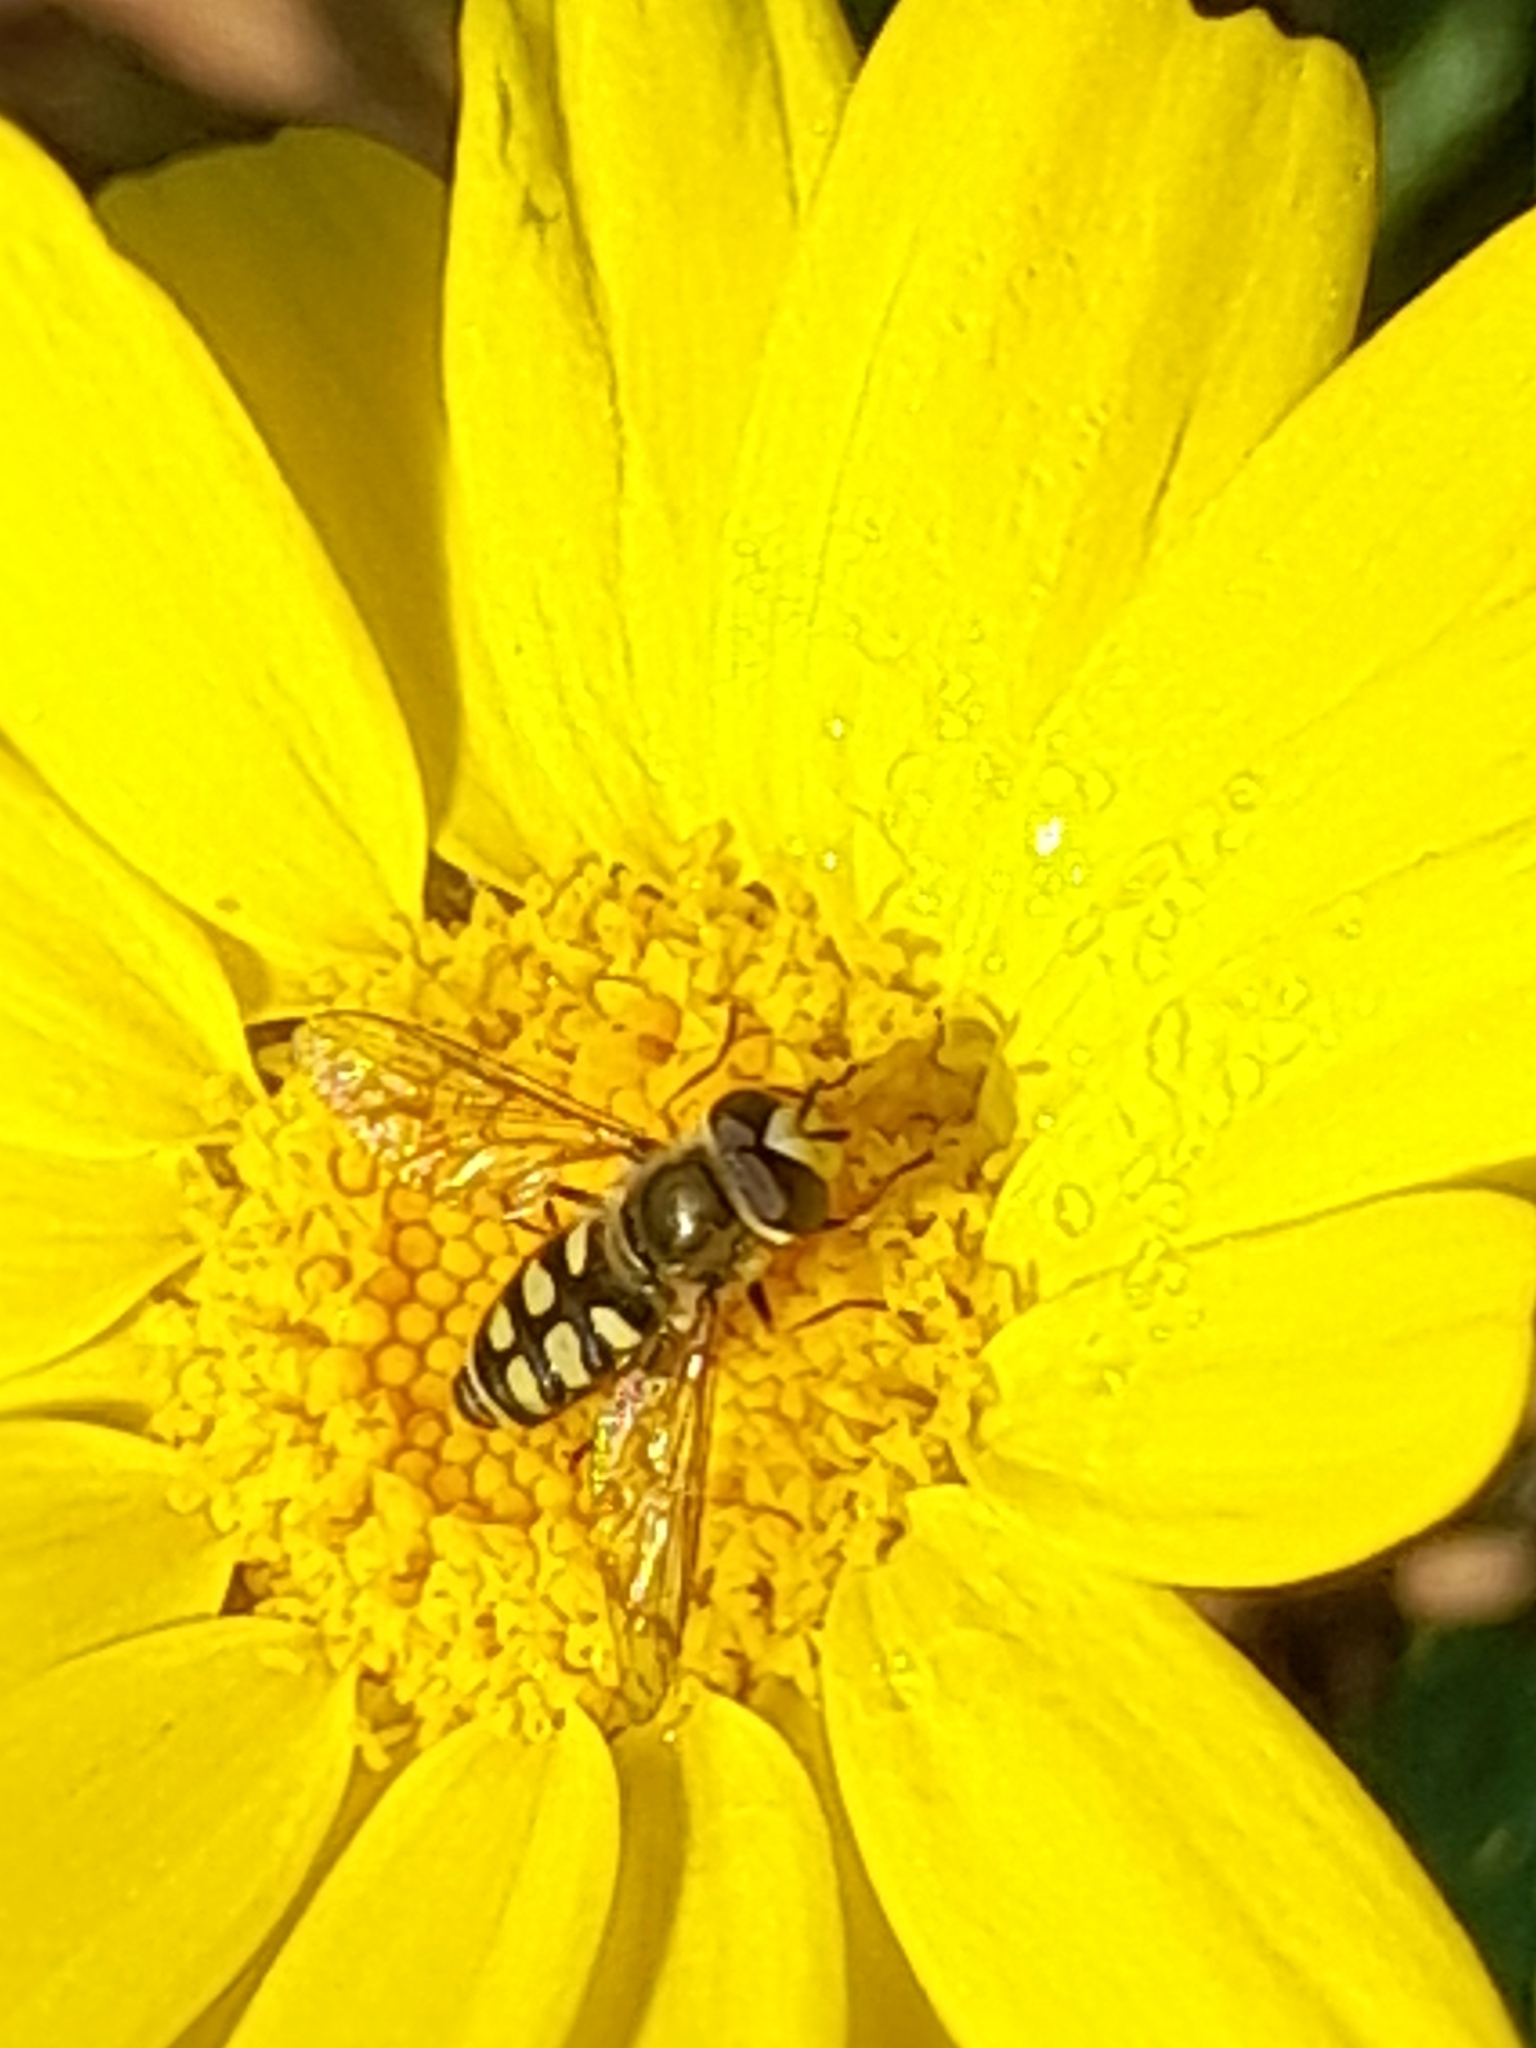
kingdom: Animalia
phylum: Arthropoda
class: Insecta
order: Diptera
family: Syrphidae
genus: Eupeodes
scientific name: Eupeodes corollae
